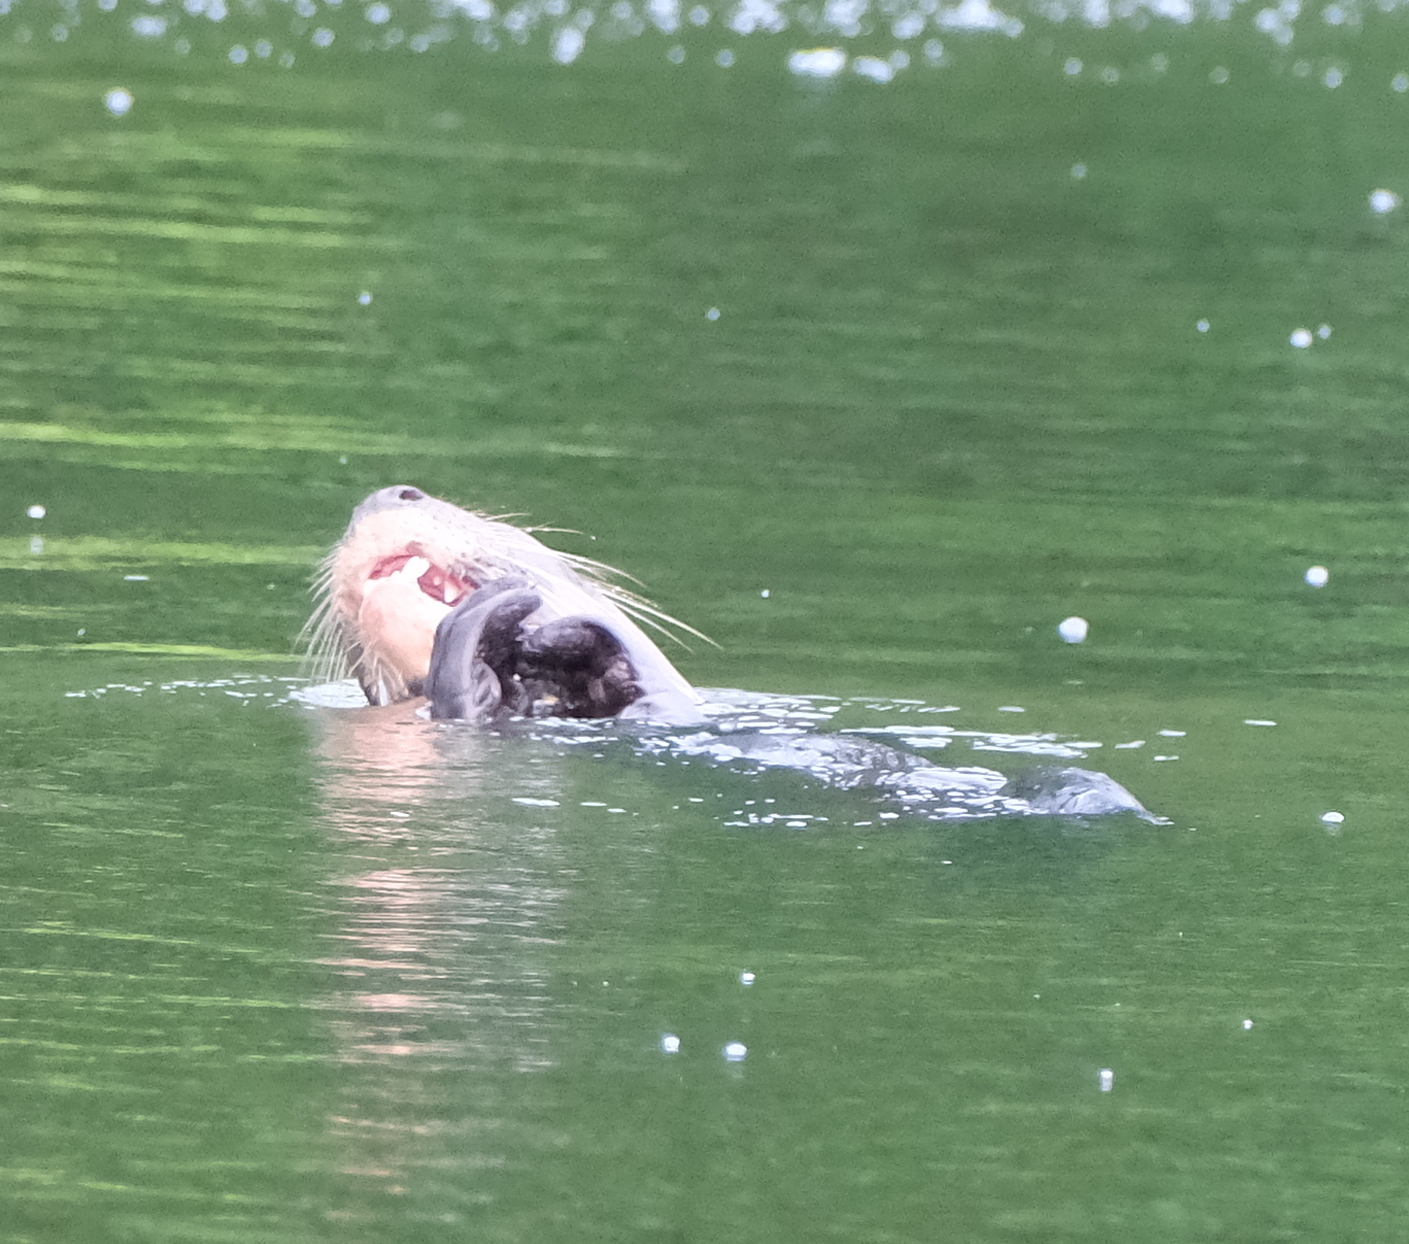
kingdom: Animalia
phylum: Chordata
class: Mammalia
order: Carnivora
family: Mustelidae
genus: Pteronura
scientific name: Pteronura brasiliensis
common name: Giant otter
